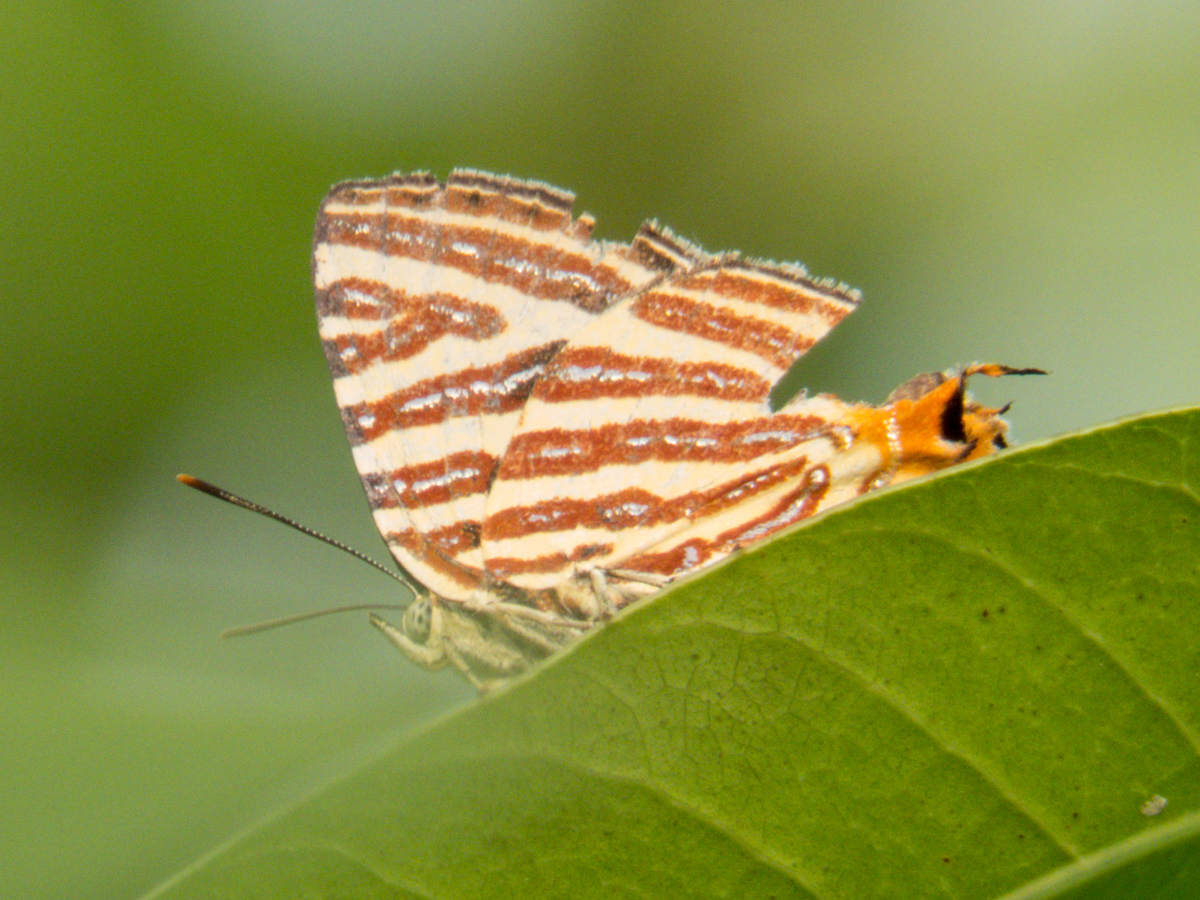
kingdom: Animalia
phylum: Arthropoda
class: Insecta
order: Lepidoptera
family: Lycaenidae
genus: Cigaritis
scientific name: Cigaritis lohita
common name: Long-banded silverline
